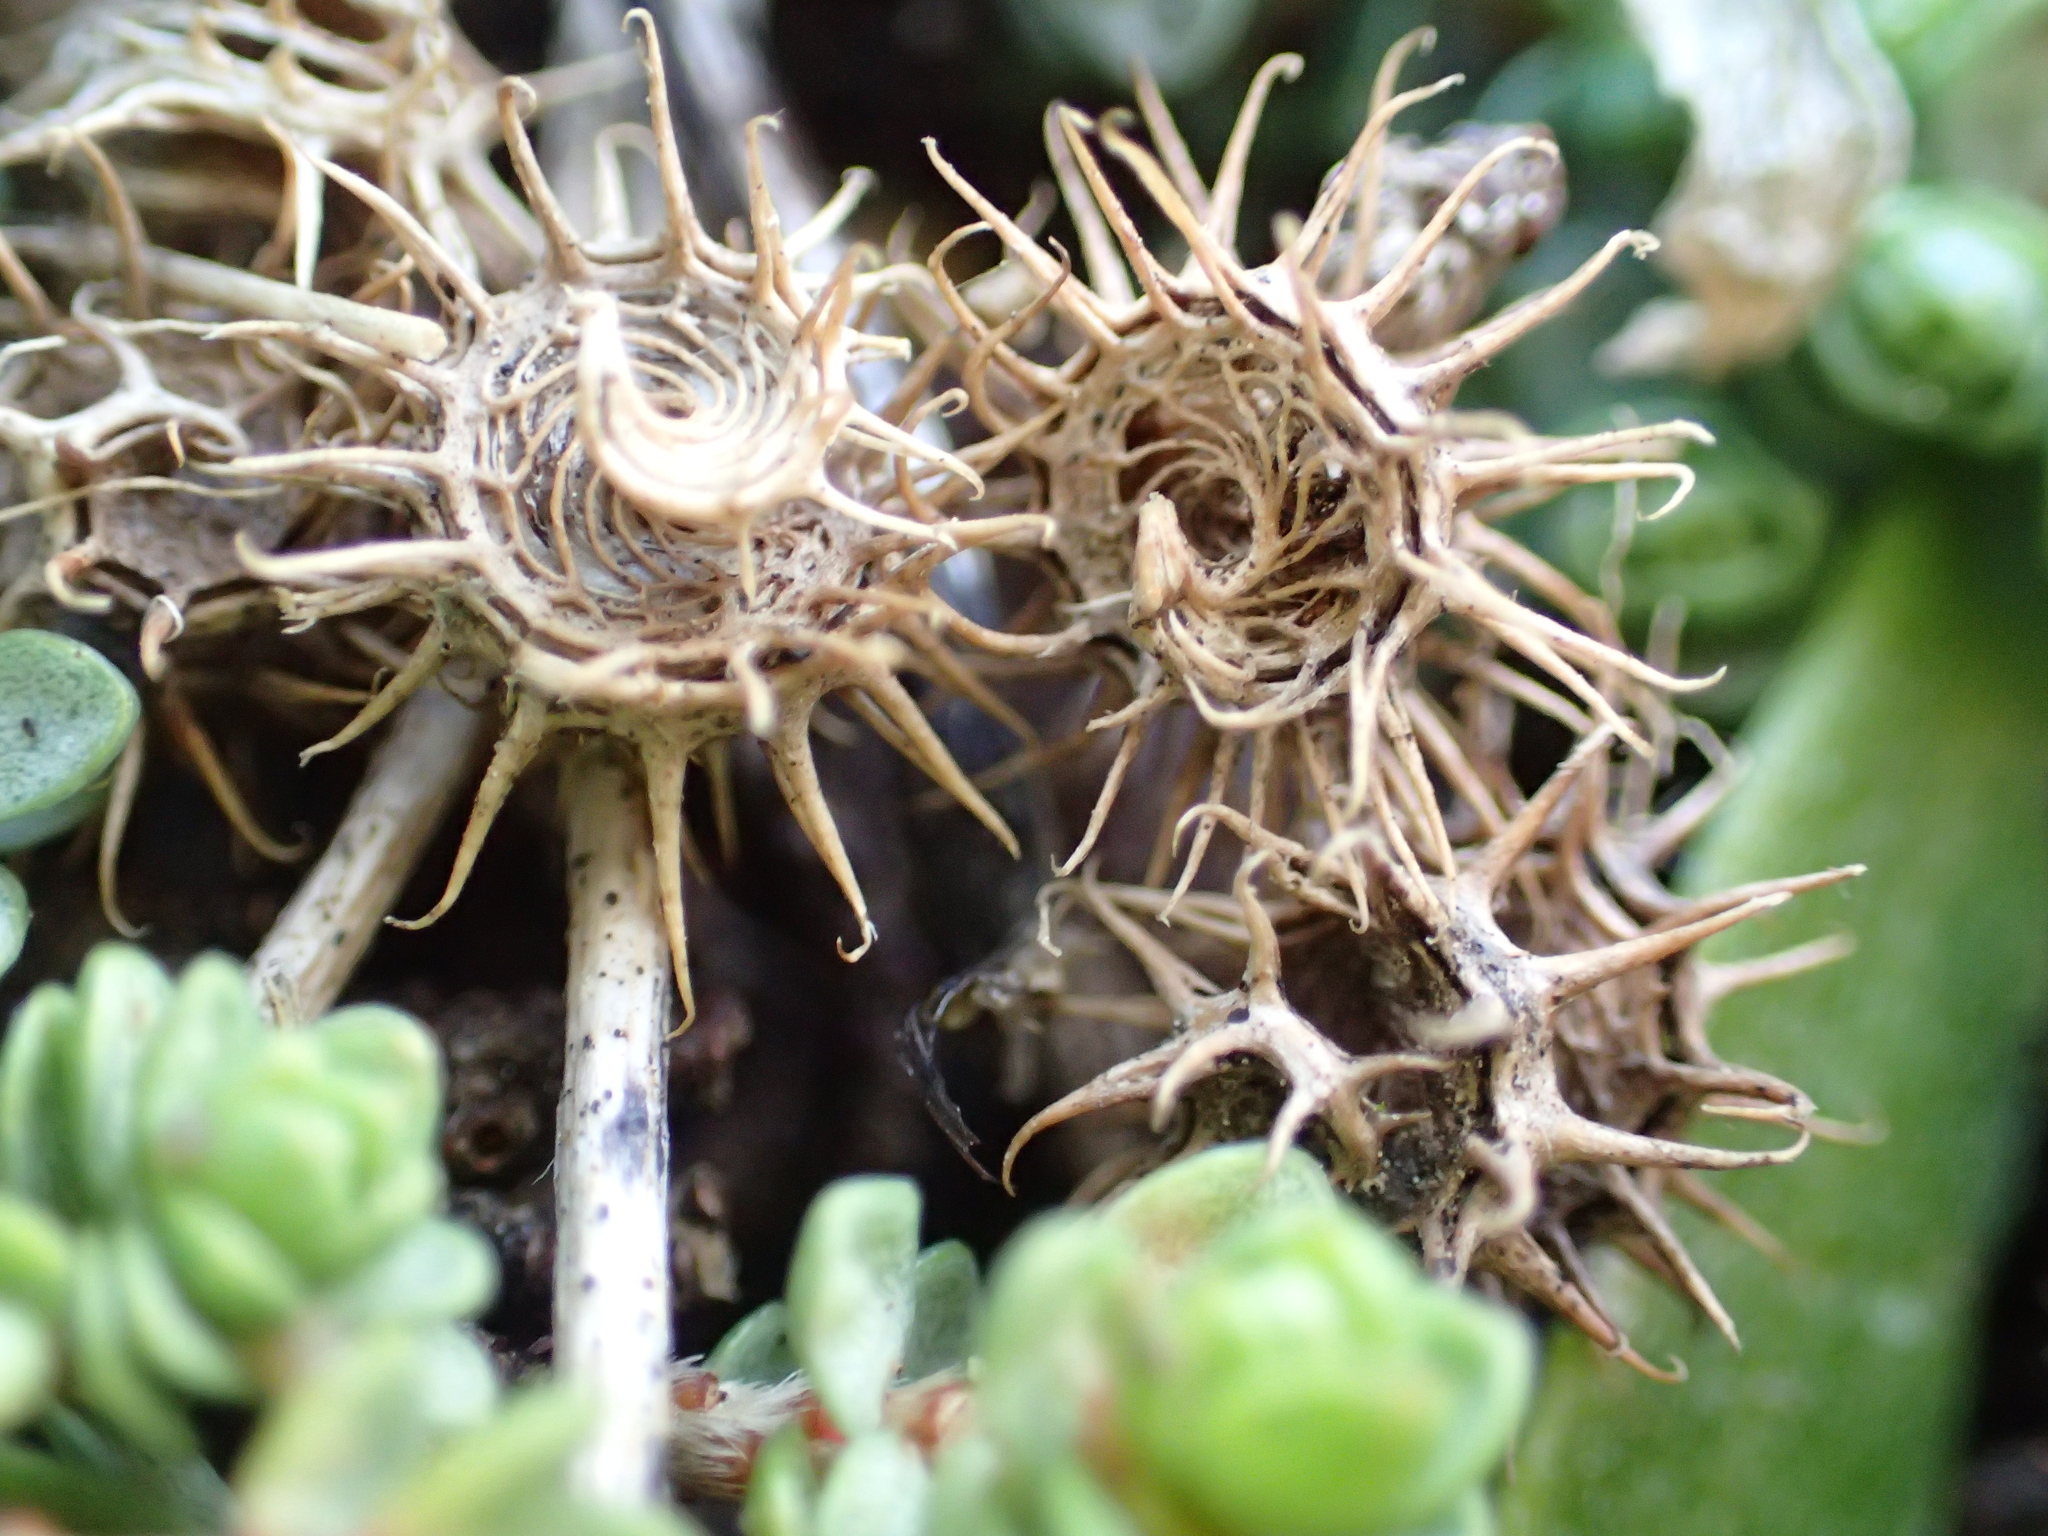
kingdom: Plantae
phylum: Tracheophyta
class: Magnoliopsida
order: Fabales
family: Fabaceae
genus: Medicago
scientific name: Medicago
